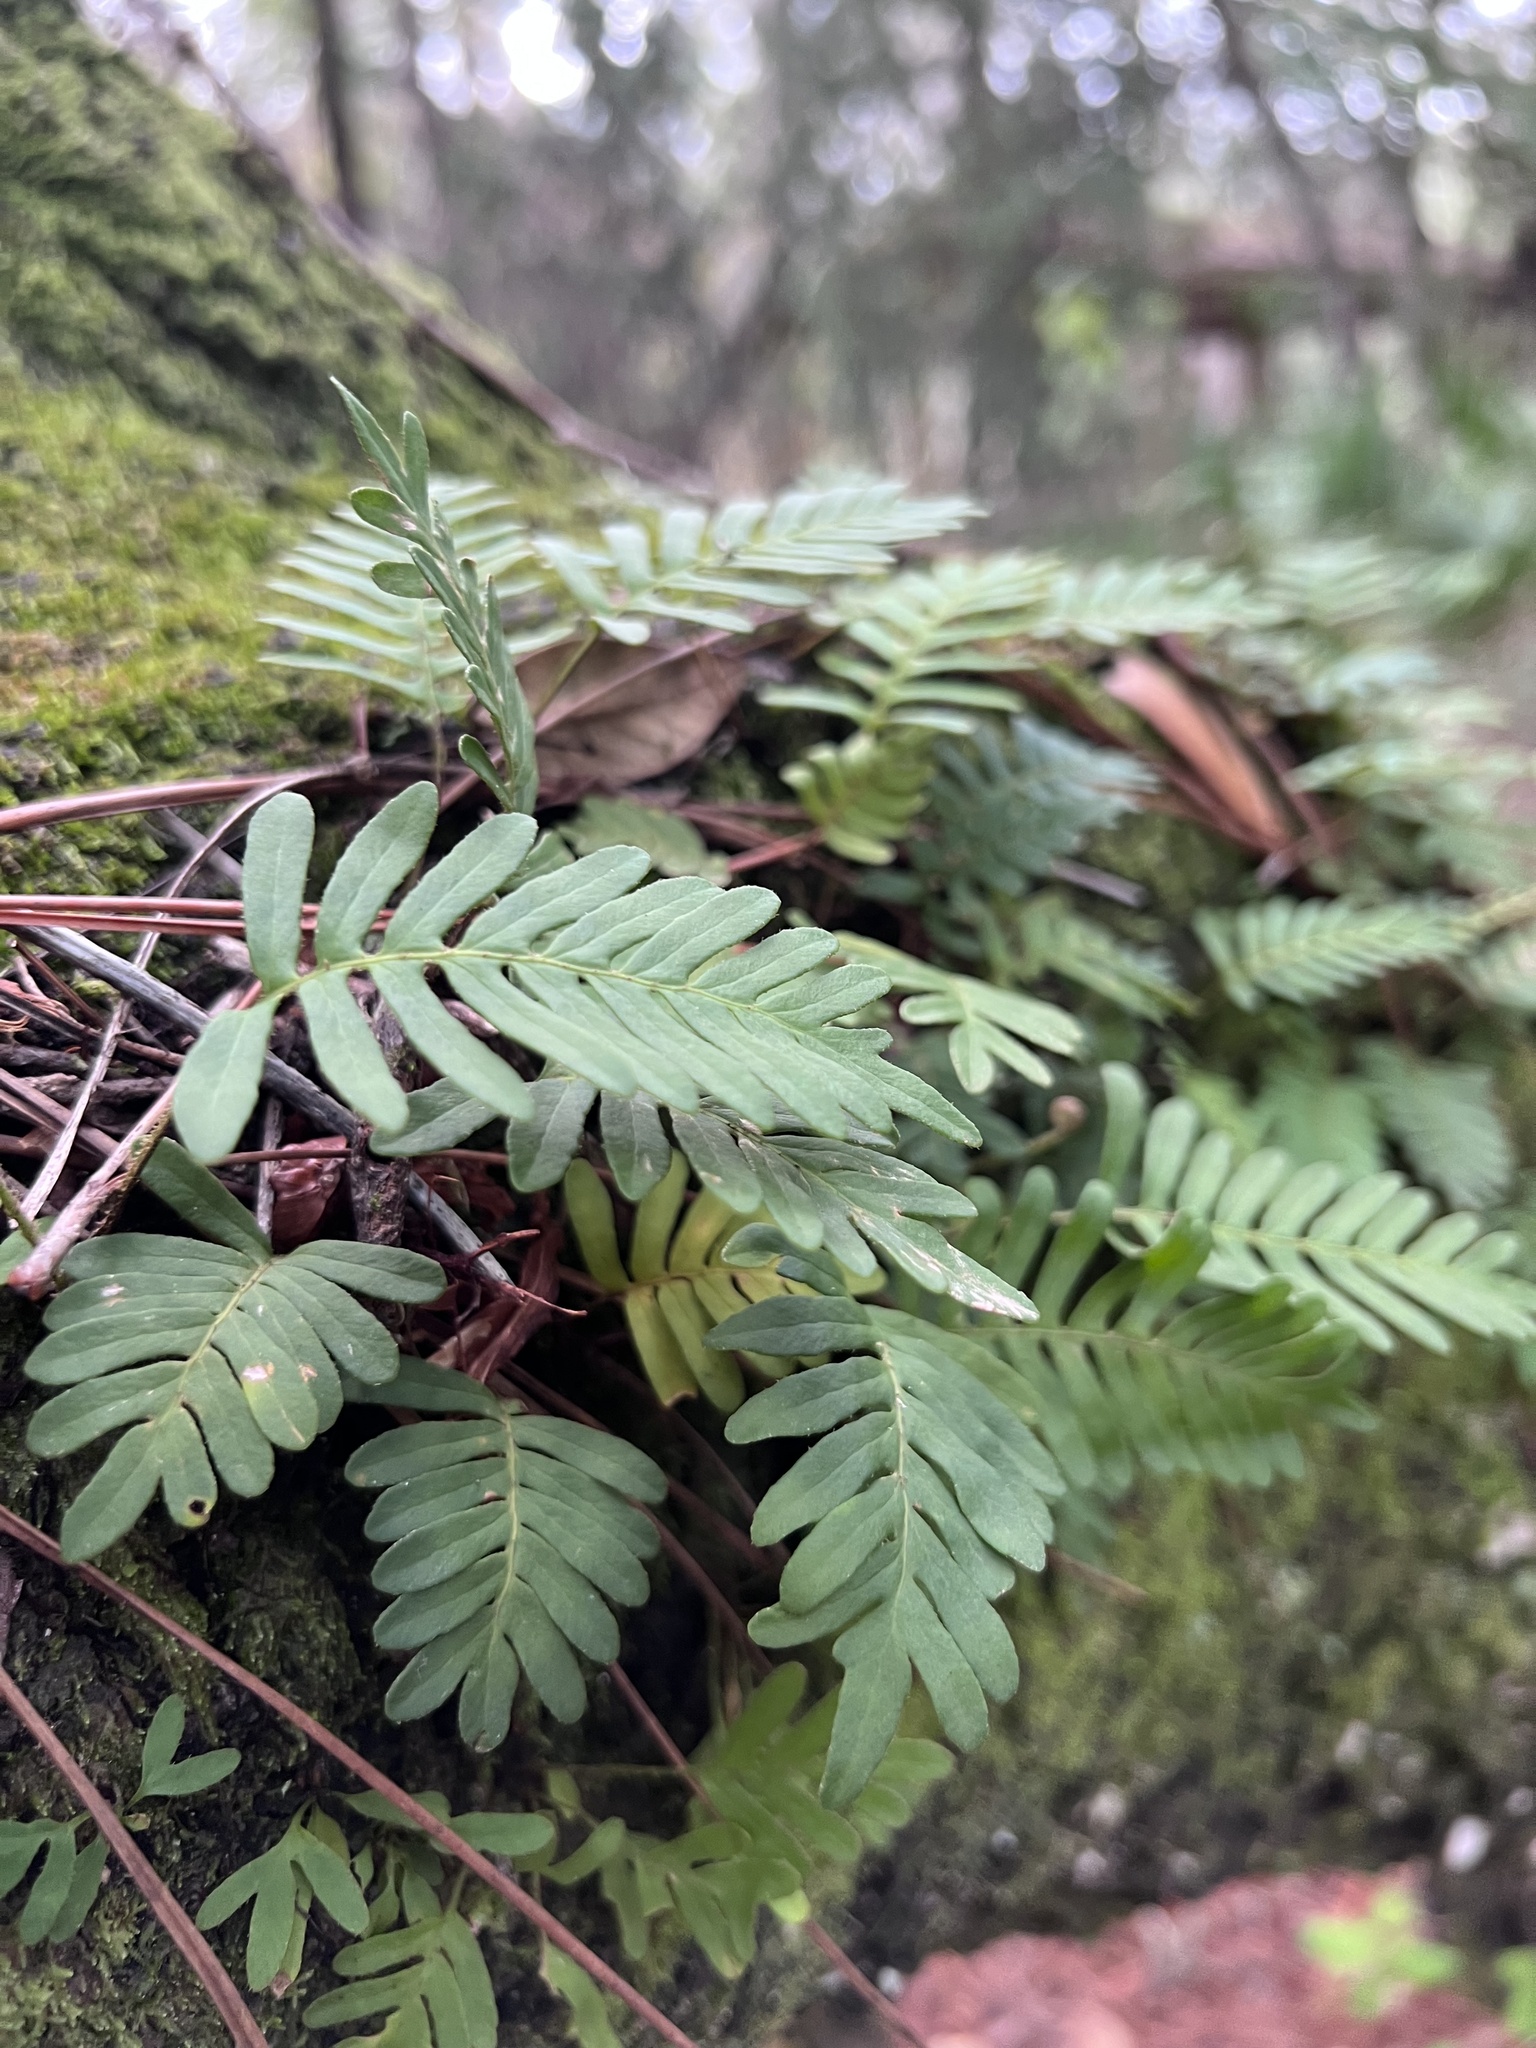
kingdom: Plantae
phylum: Tracheophyta
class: Polypodiopsida
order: Polypodiales
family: Polypodiaceae
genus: Pleopeltis
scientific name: Pleopeltis michauxiana
